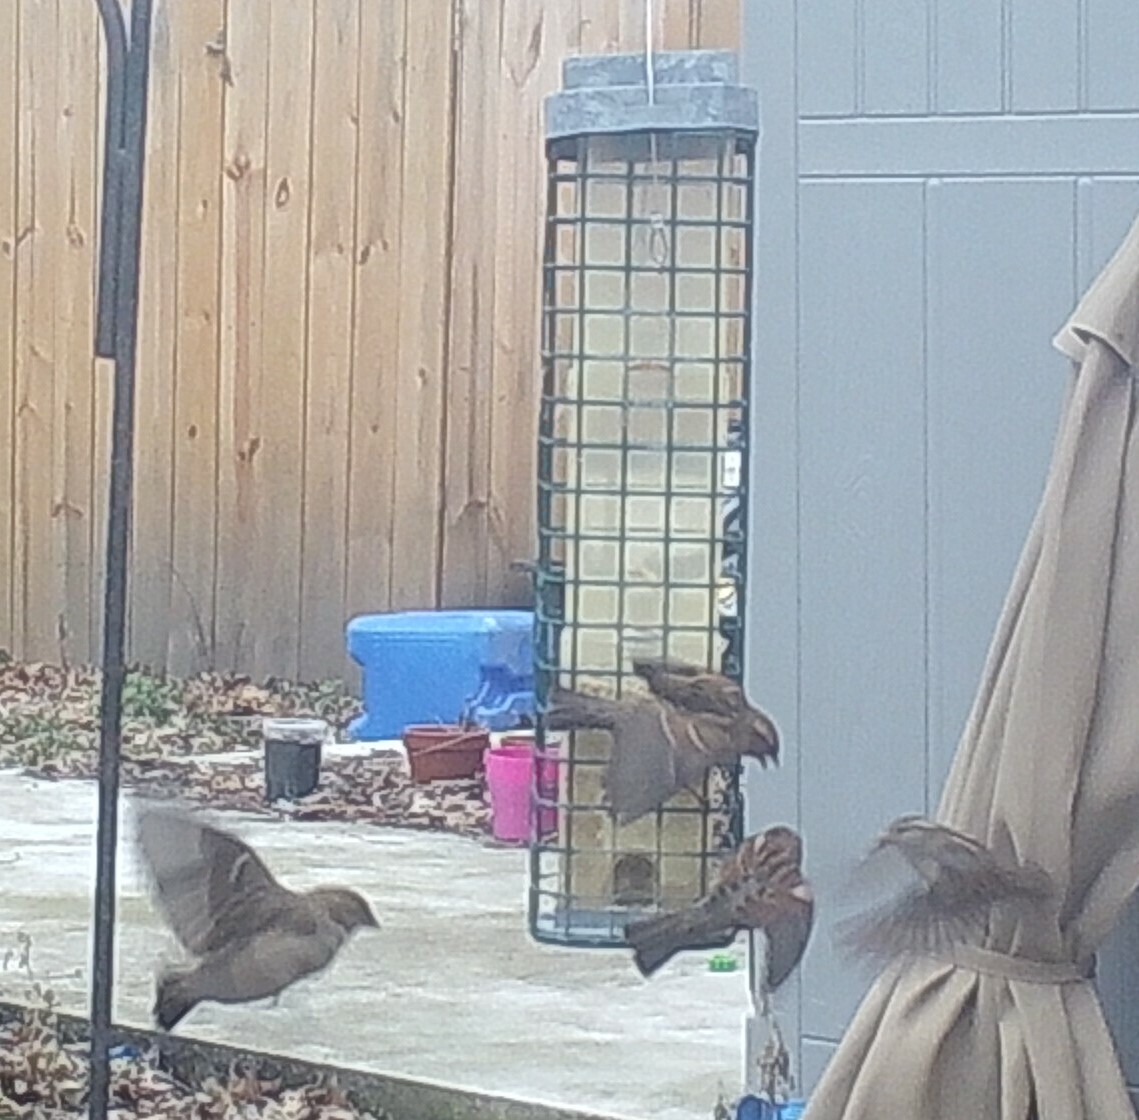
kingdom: Animalia
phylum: Chordata
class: Aves
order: Passeriformes
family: Passeridae
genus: Passer
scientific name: Passer domesticus
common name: House sparrow
